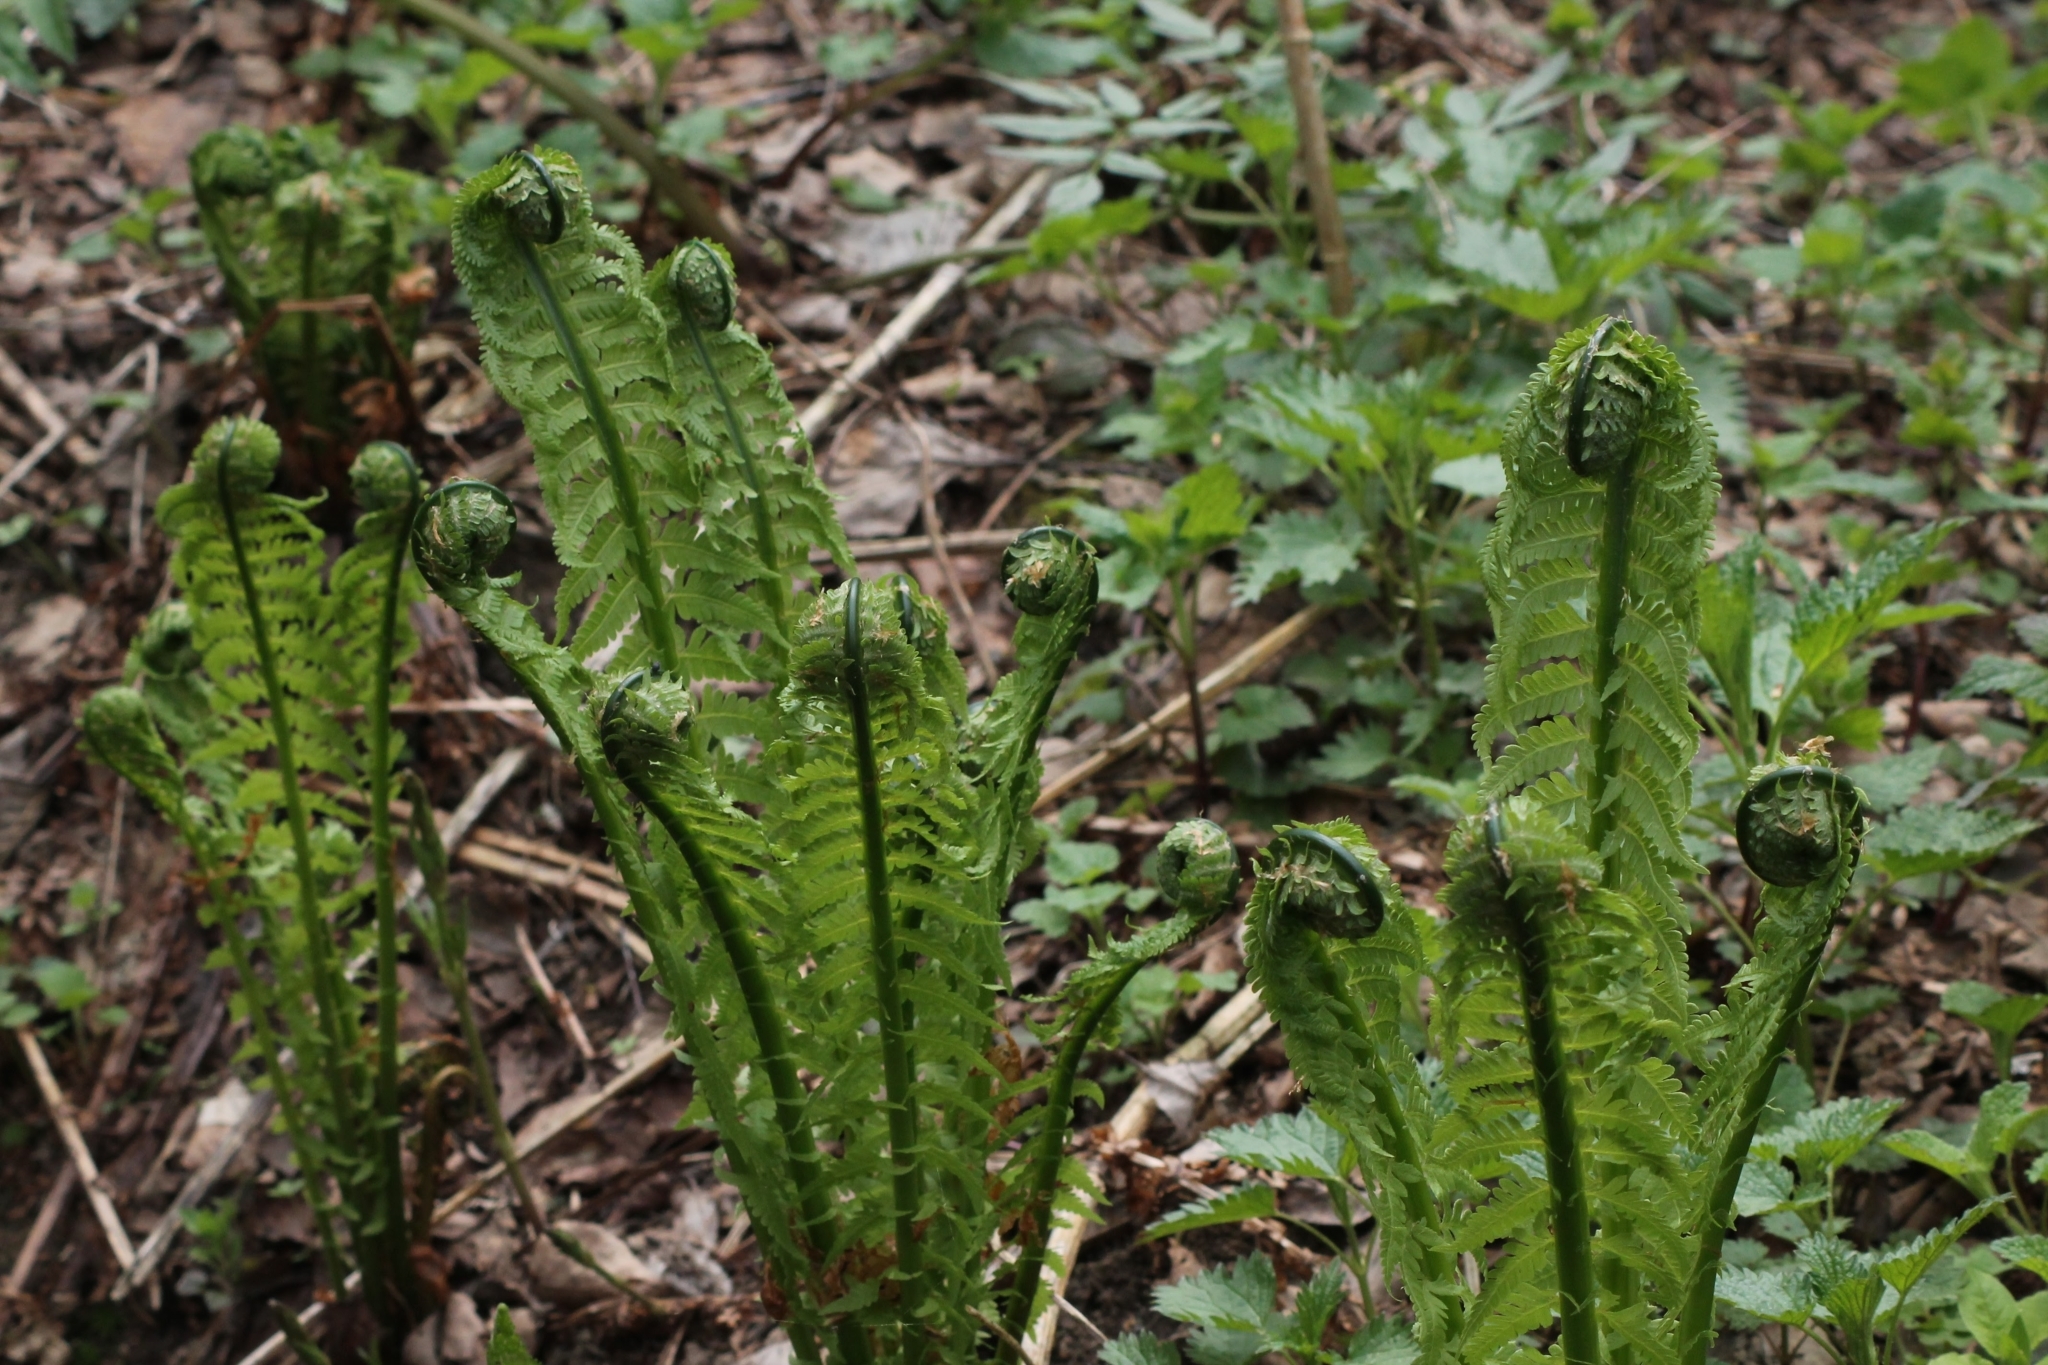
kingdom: Plantae
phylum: Tracheophyta
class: Polypodiopsida
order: Polypodiales
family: Onocleaceae
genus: Matteuccia
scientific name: Matteuccia struthiopteris
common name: Ostrich fern
